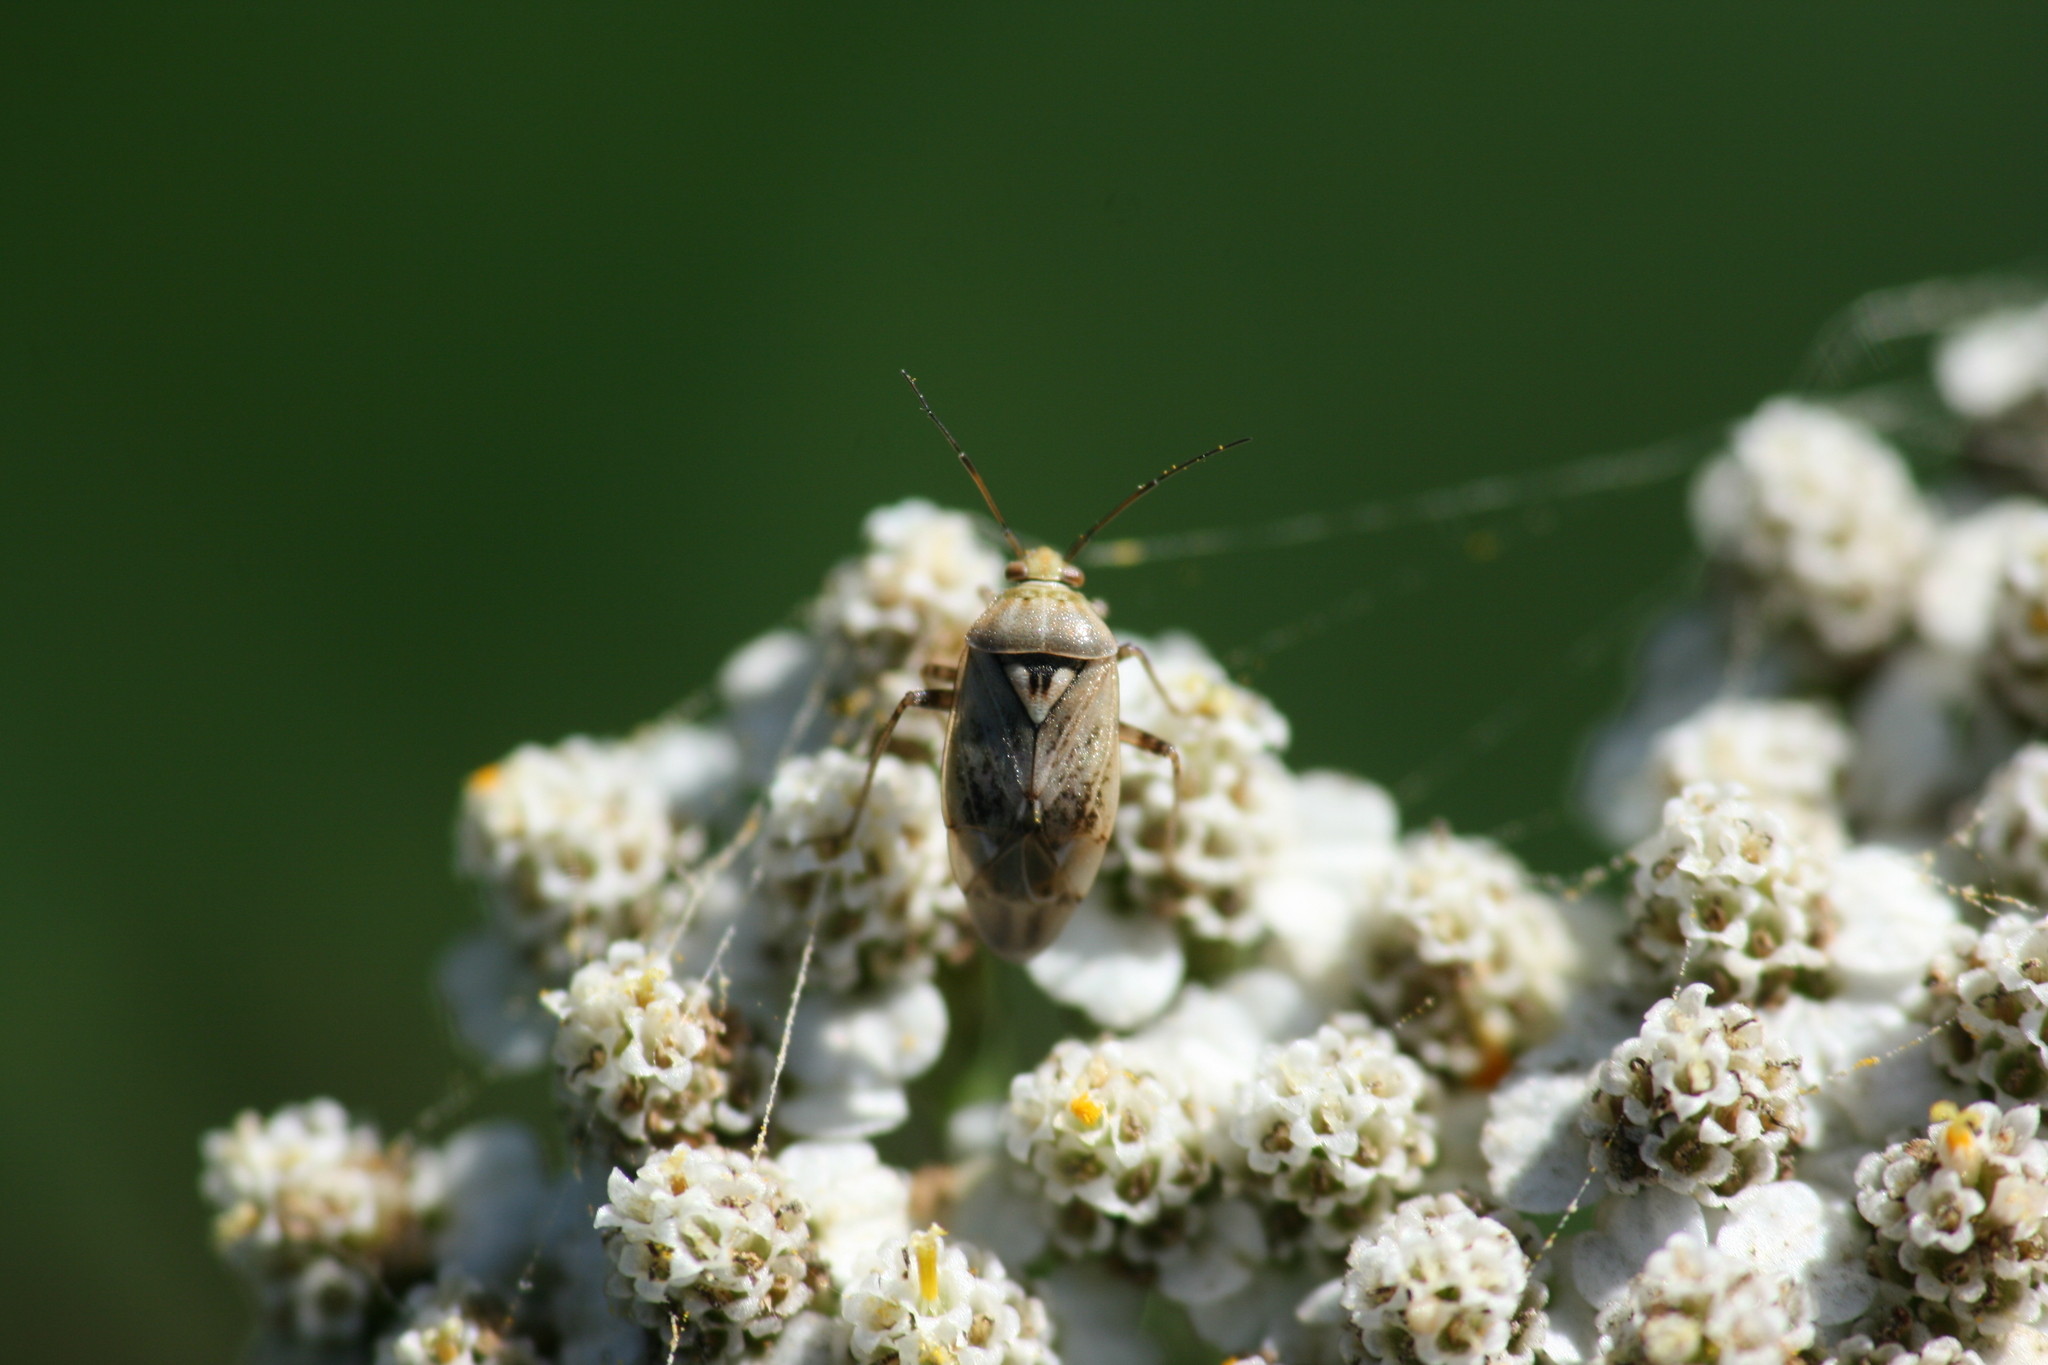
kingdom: Animalia
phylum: Arthropoda
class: Insecta
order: Hemiptera
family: Miridae
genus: Lygus
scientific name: Lygus rugulipennis
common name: European tarnished plant bug
